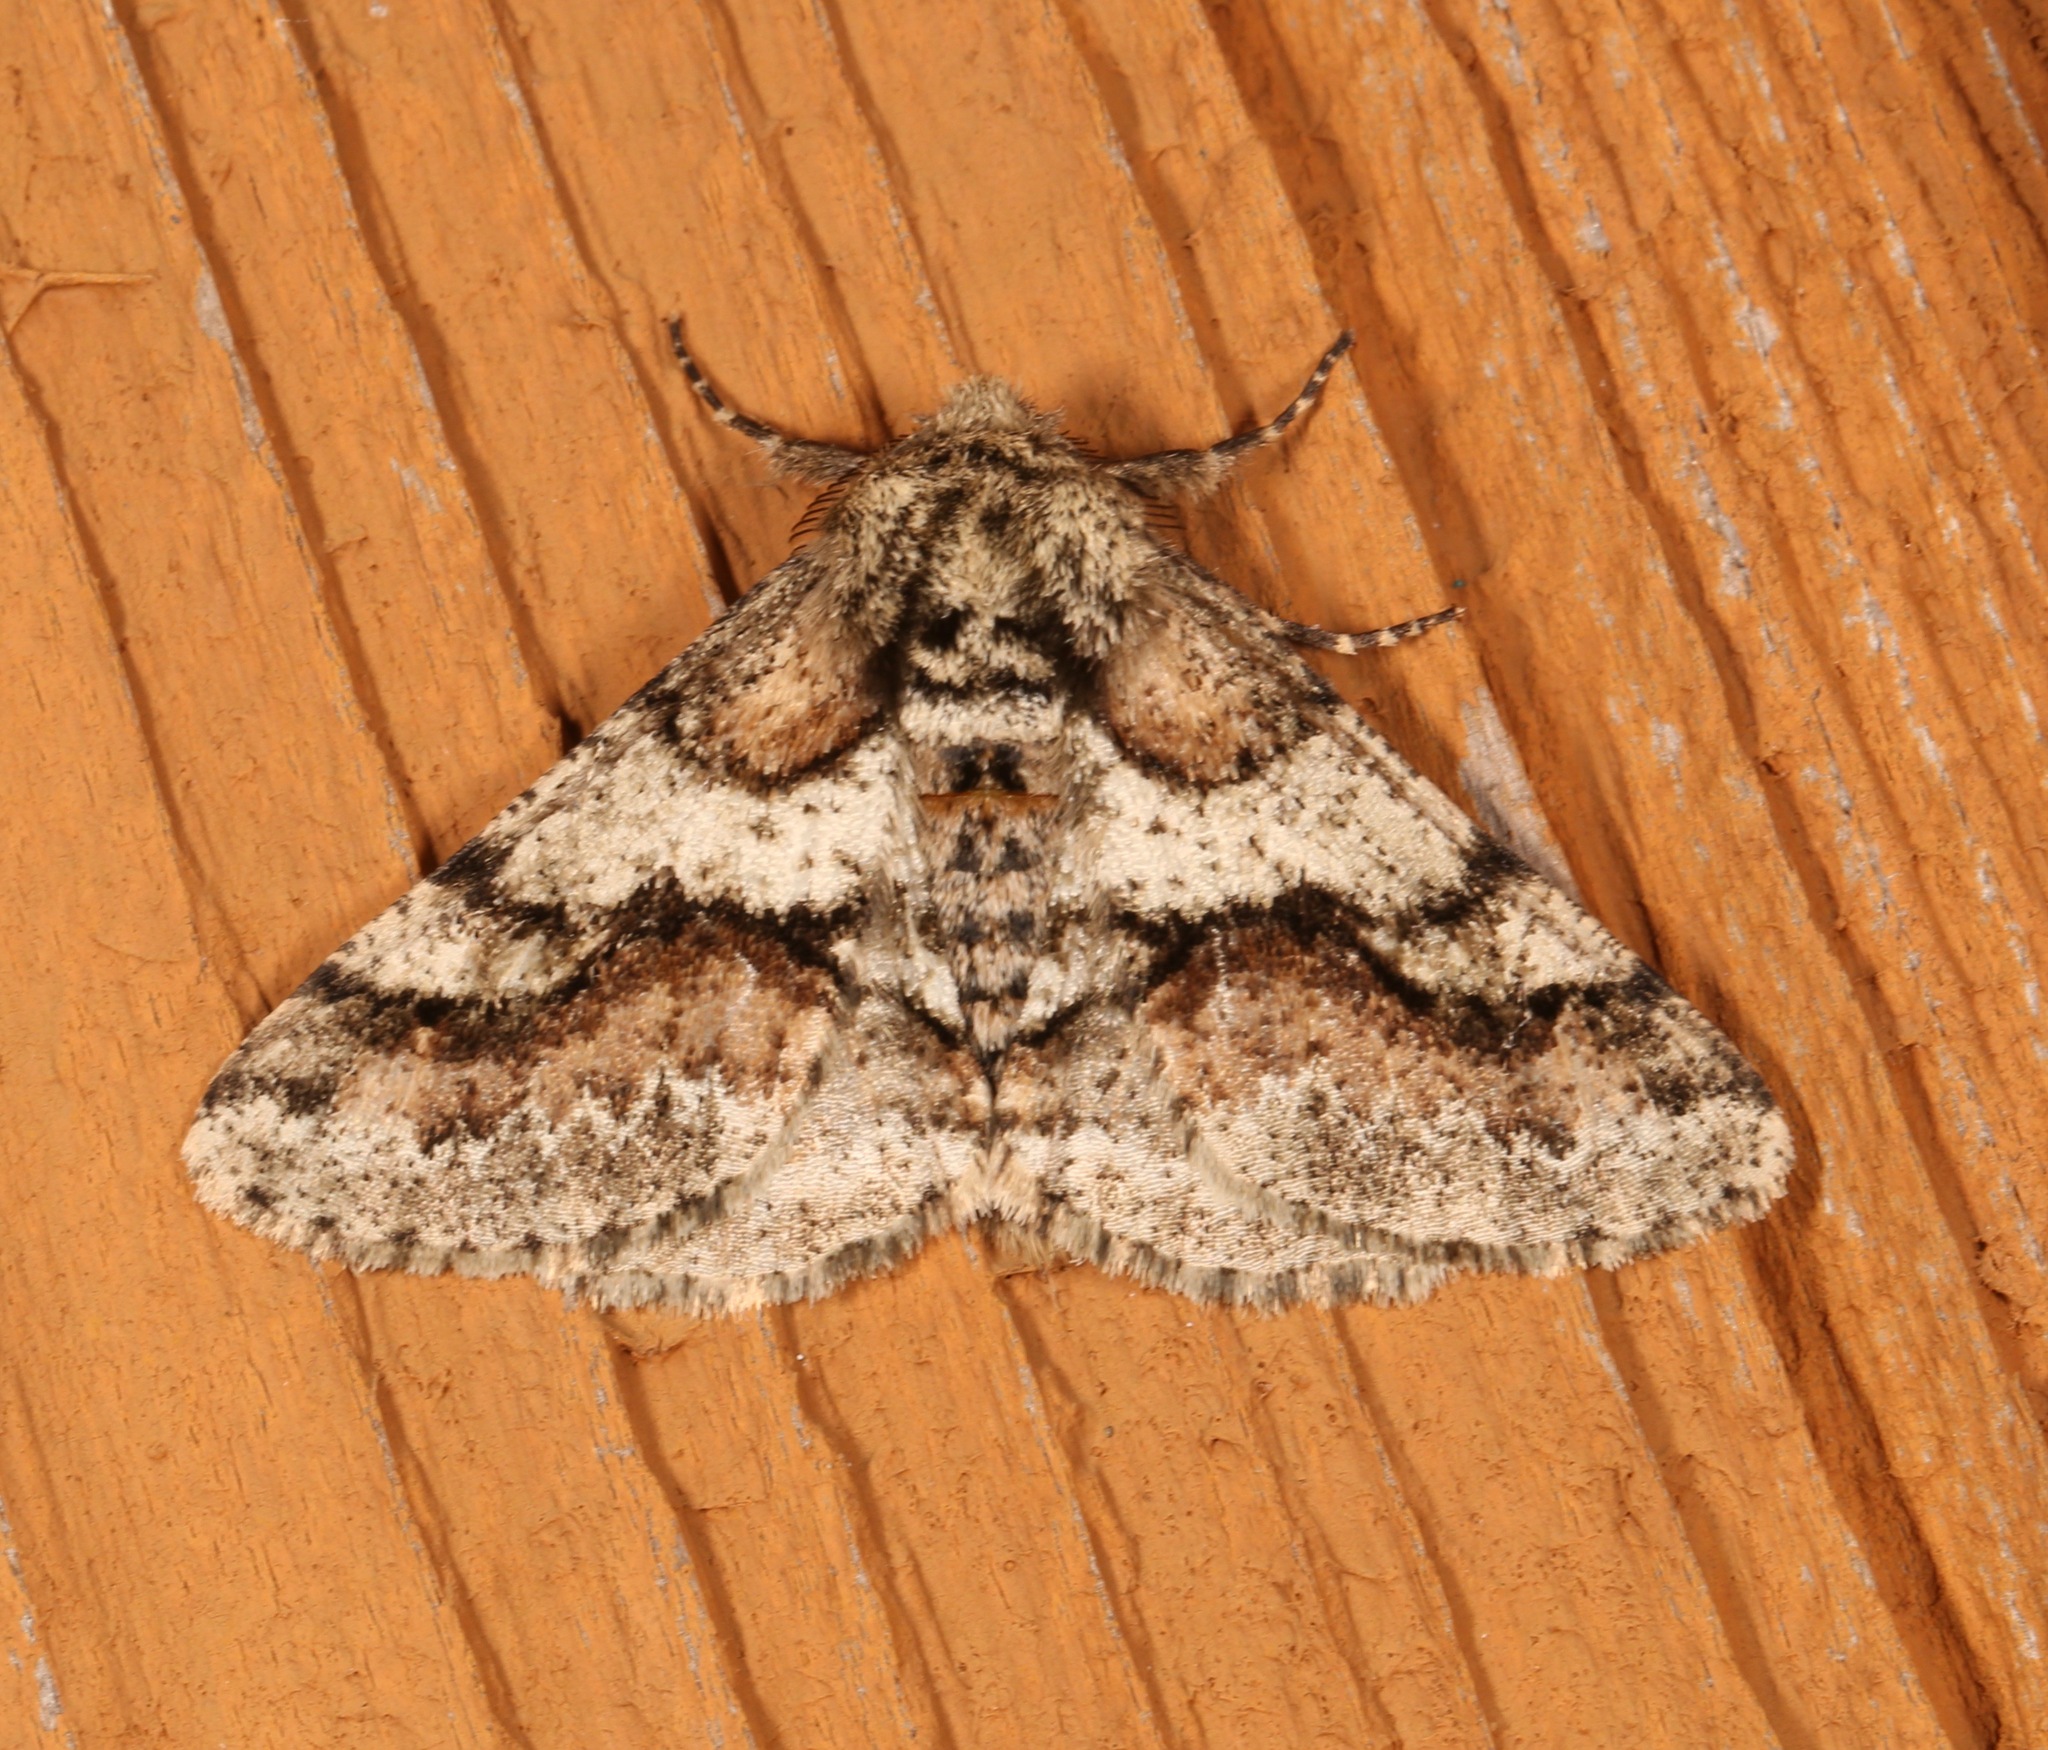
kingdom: Animalia
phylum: Arthropoda
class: Insecta
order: Lepidoptera
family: Geometridae
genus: Lycia
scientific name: Lycia ypsilon
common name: Wooly gray
